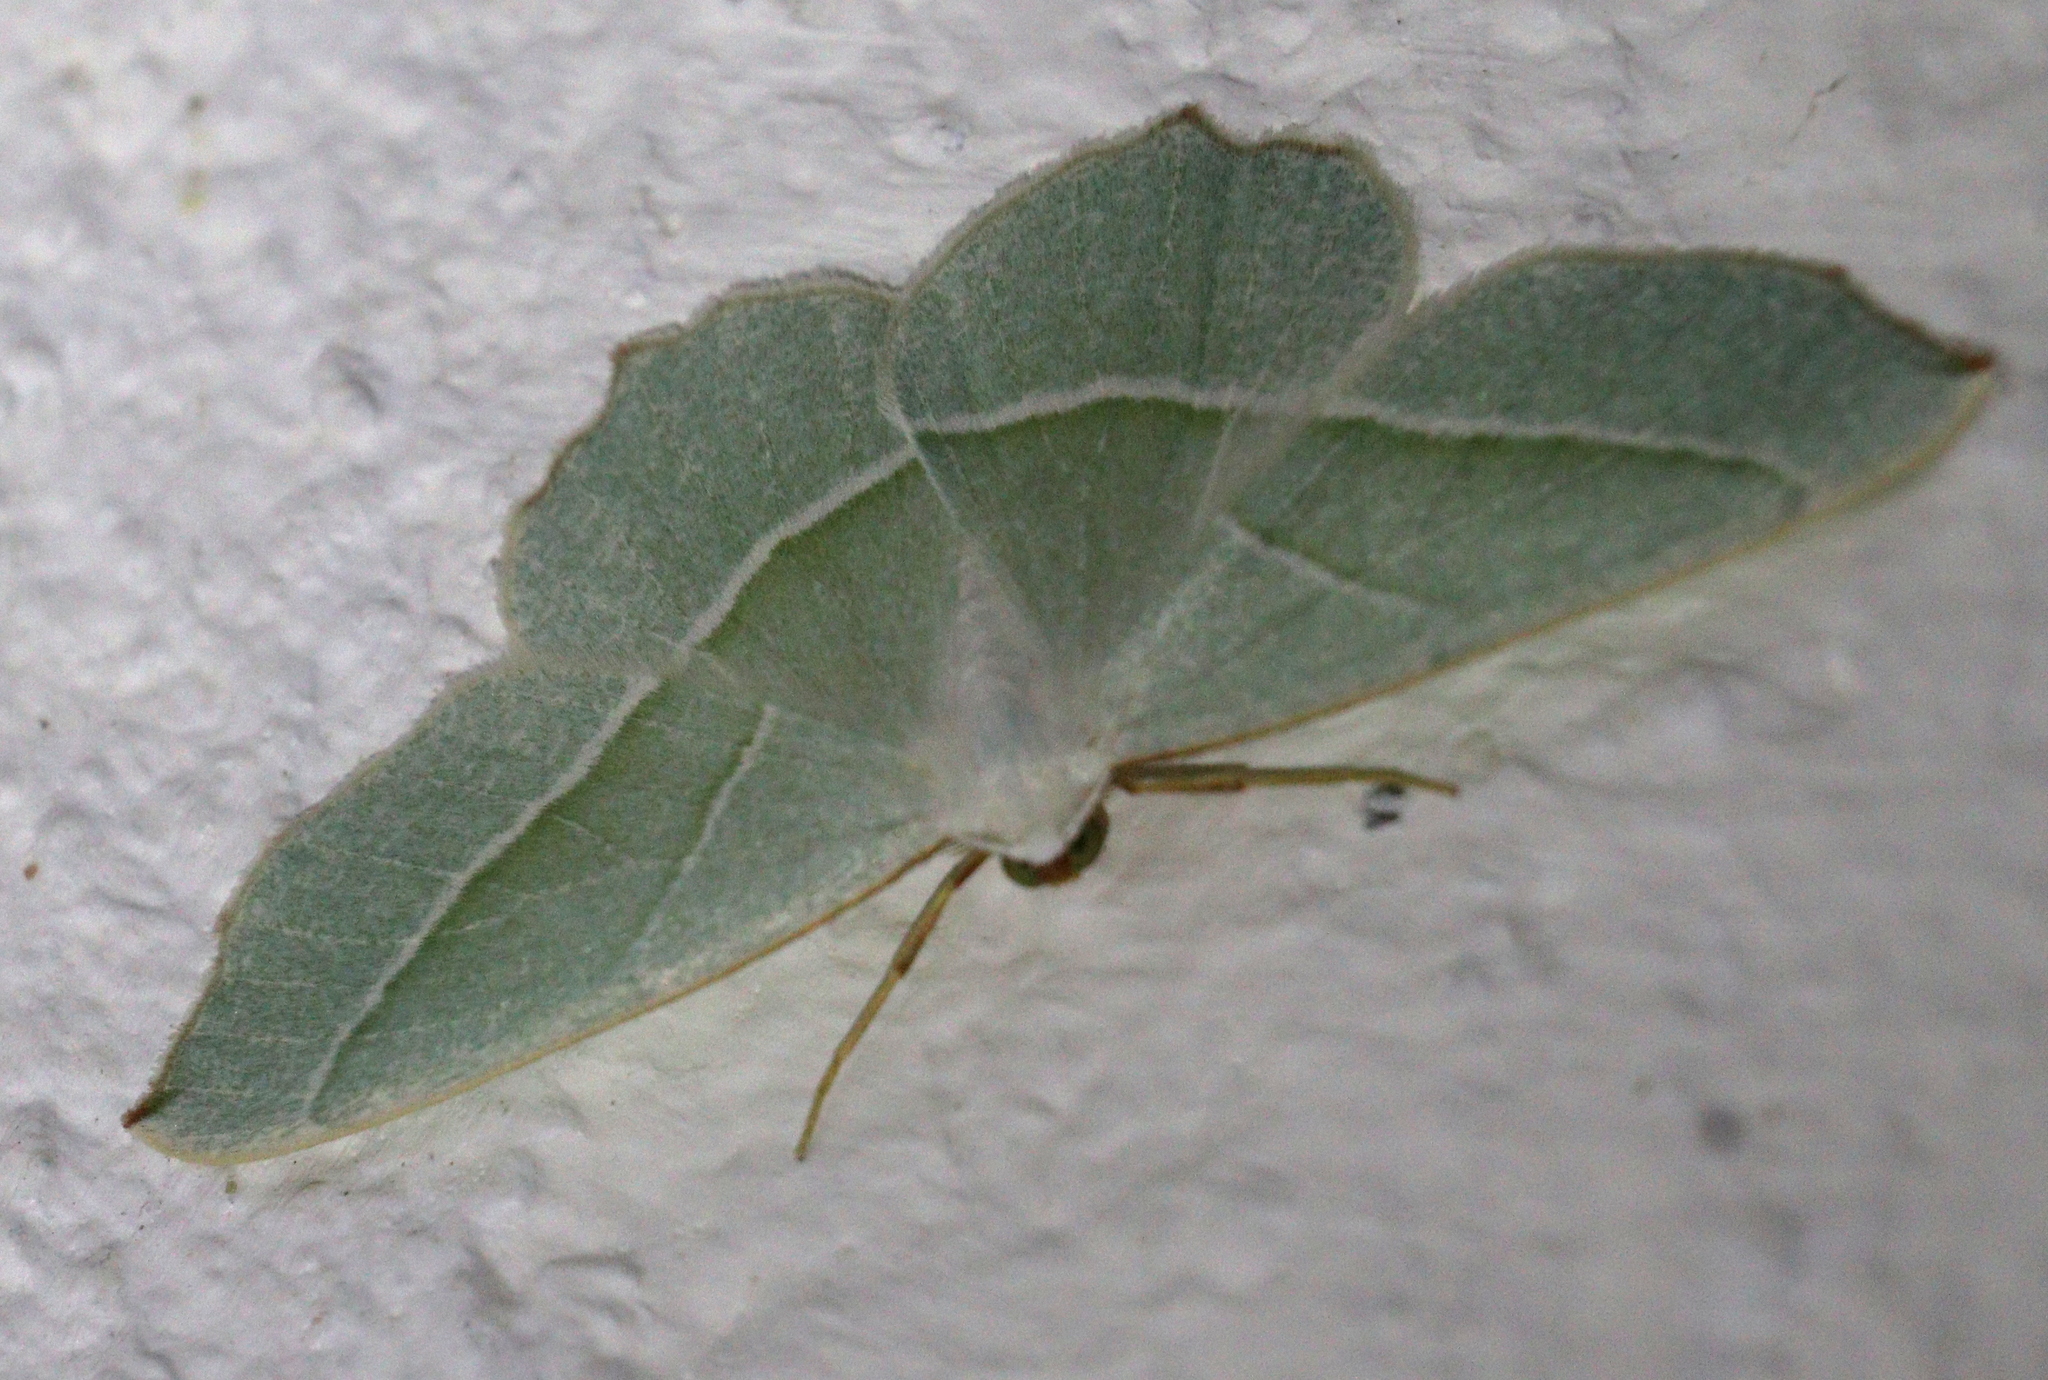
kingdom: Animalia
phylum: Arthropoda
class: Insecta
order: Lepidoptera
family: Geometridae
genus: Campaea
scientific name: Campaea margaritaria
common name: Light emerald
